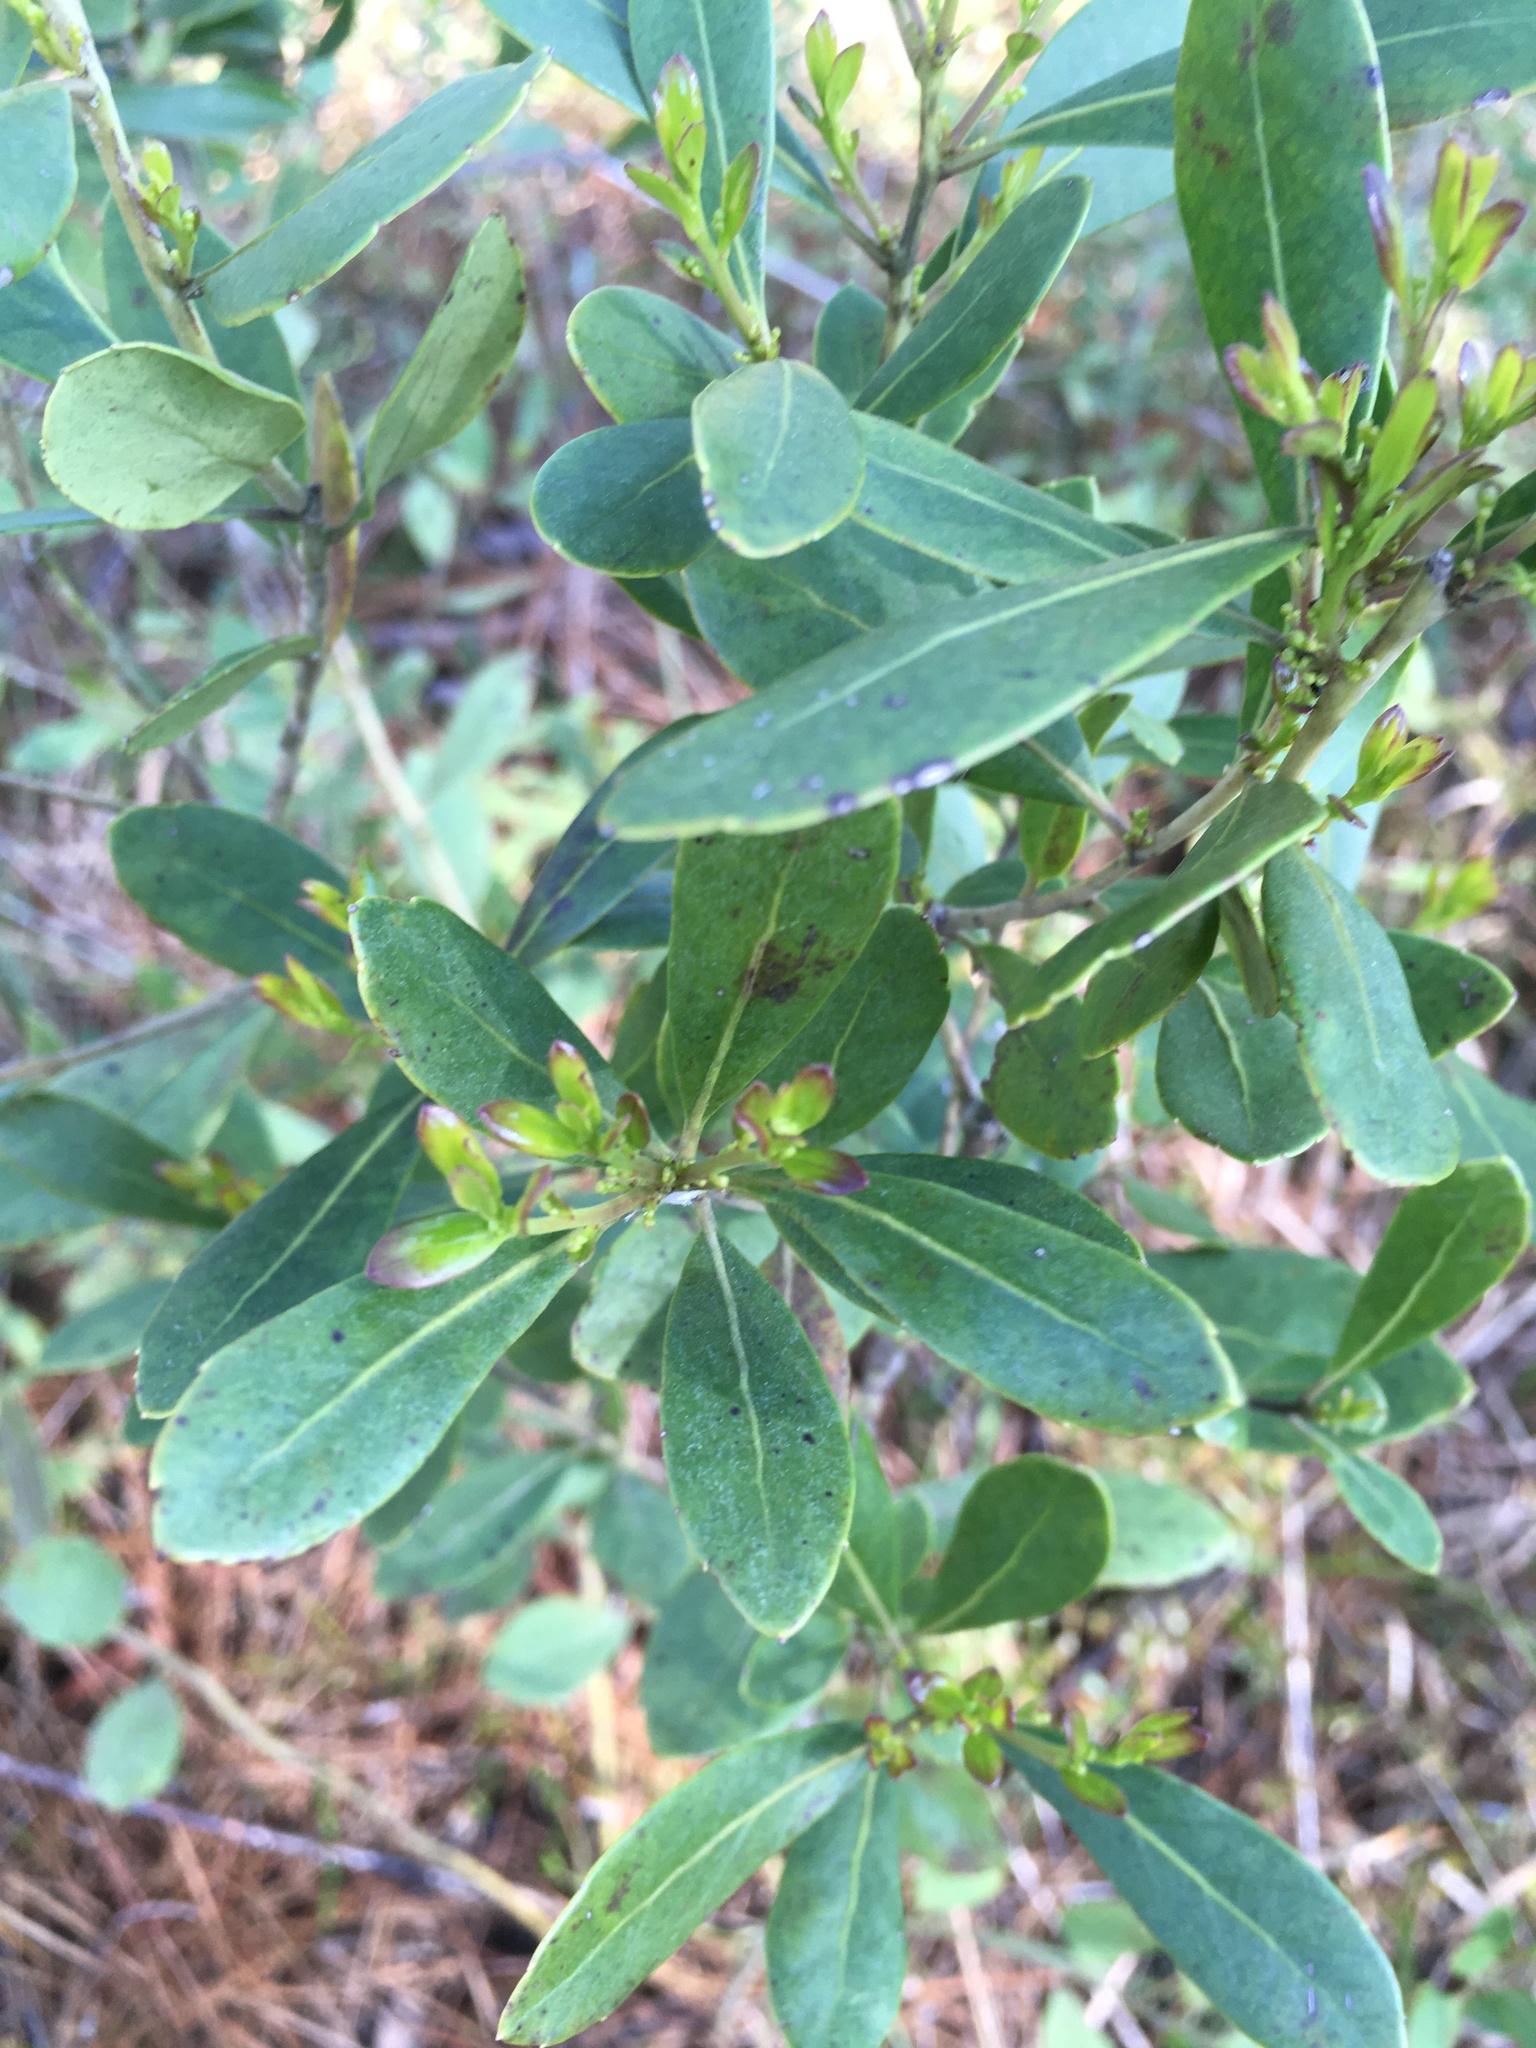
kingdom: Plantae
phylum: Tracheophyta
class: Magnoliopsida
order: Aquifoliales
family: Aquifoliaceae
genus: Ilex
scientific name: Ilex glabra
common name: Bitter gallberry
